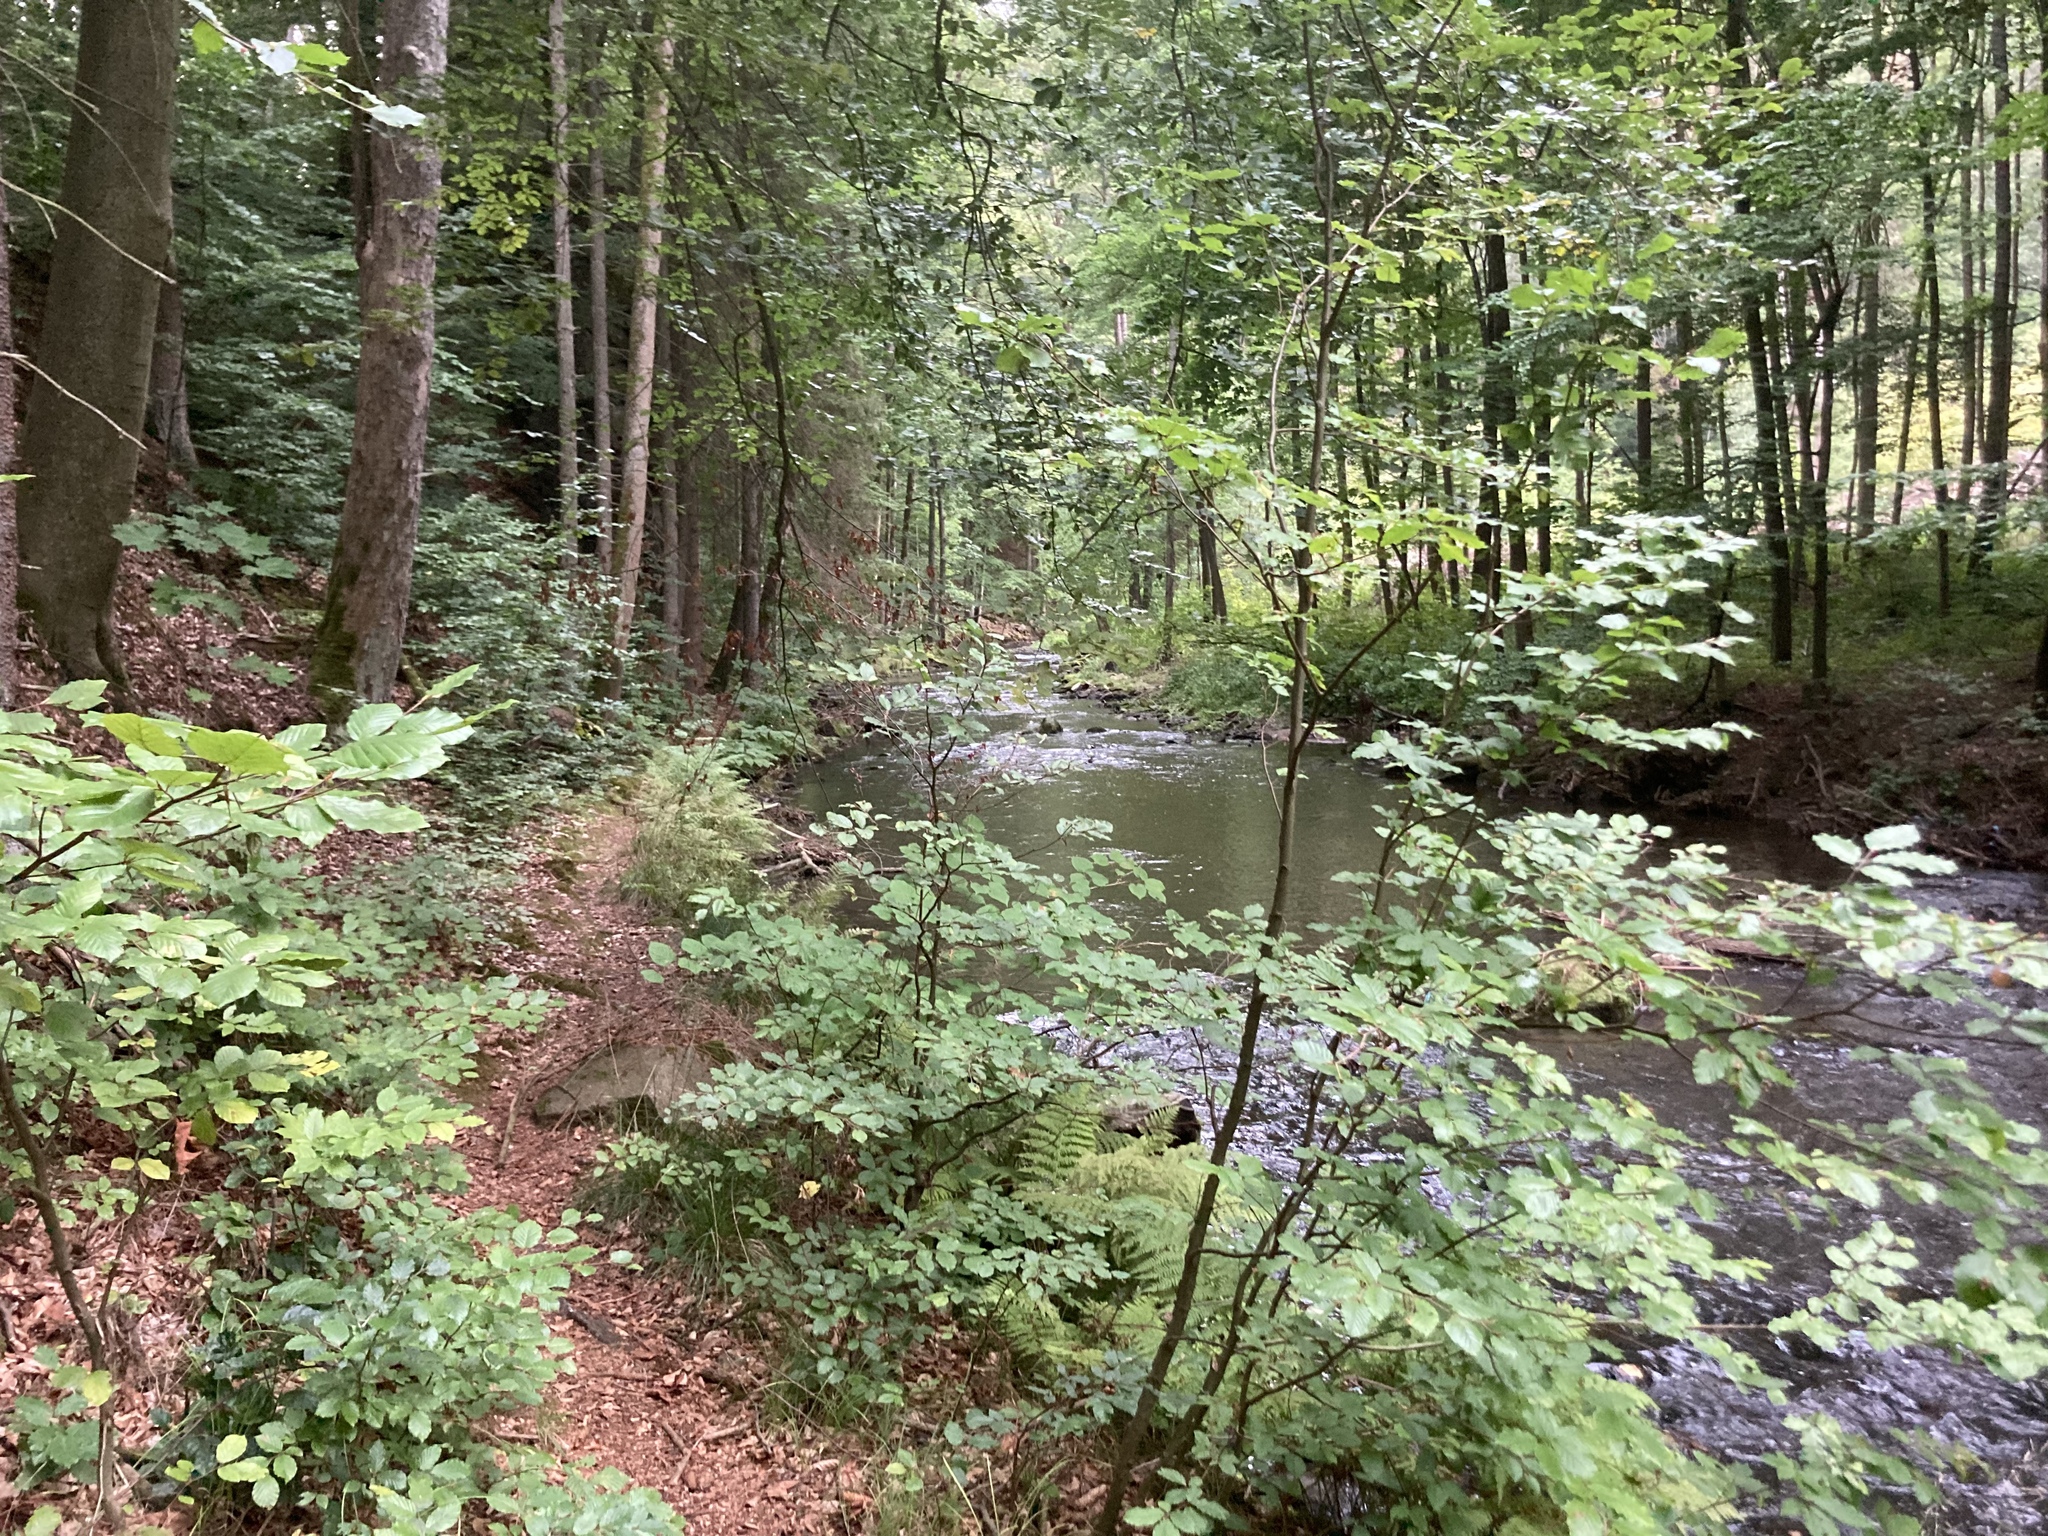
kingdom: Plantae
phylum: Tracheophyta
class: Magnoliopsida
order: Fagales
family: Fagaceae
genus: Fagus
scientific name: Fagus sylvatica
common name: Beech
